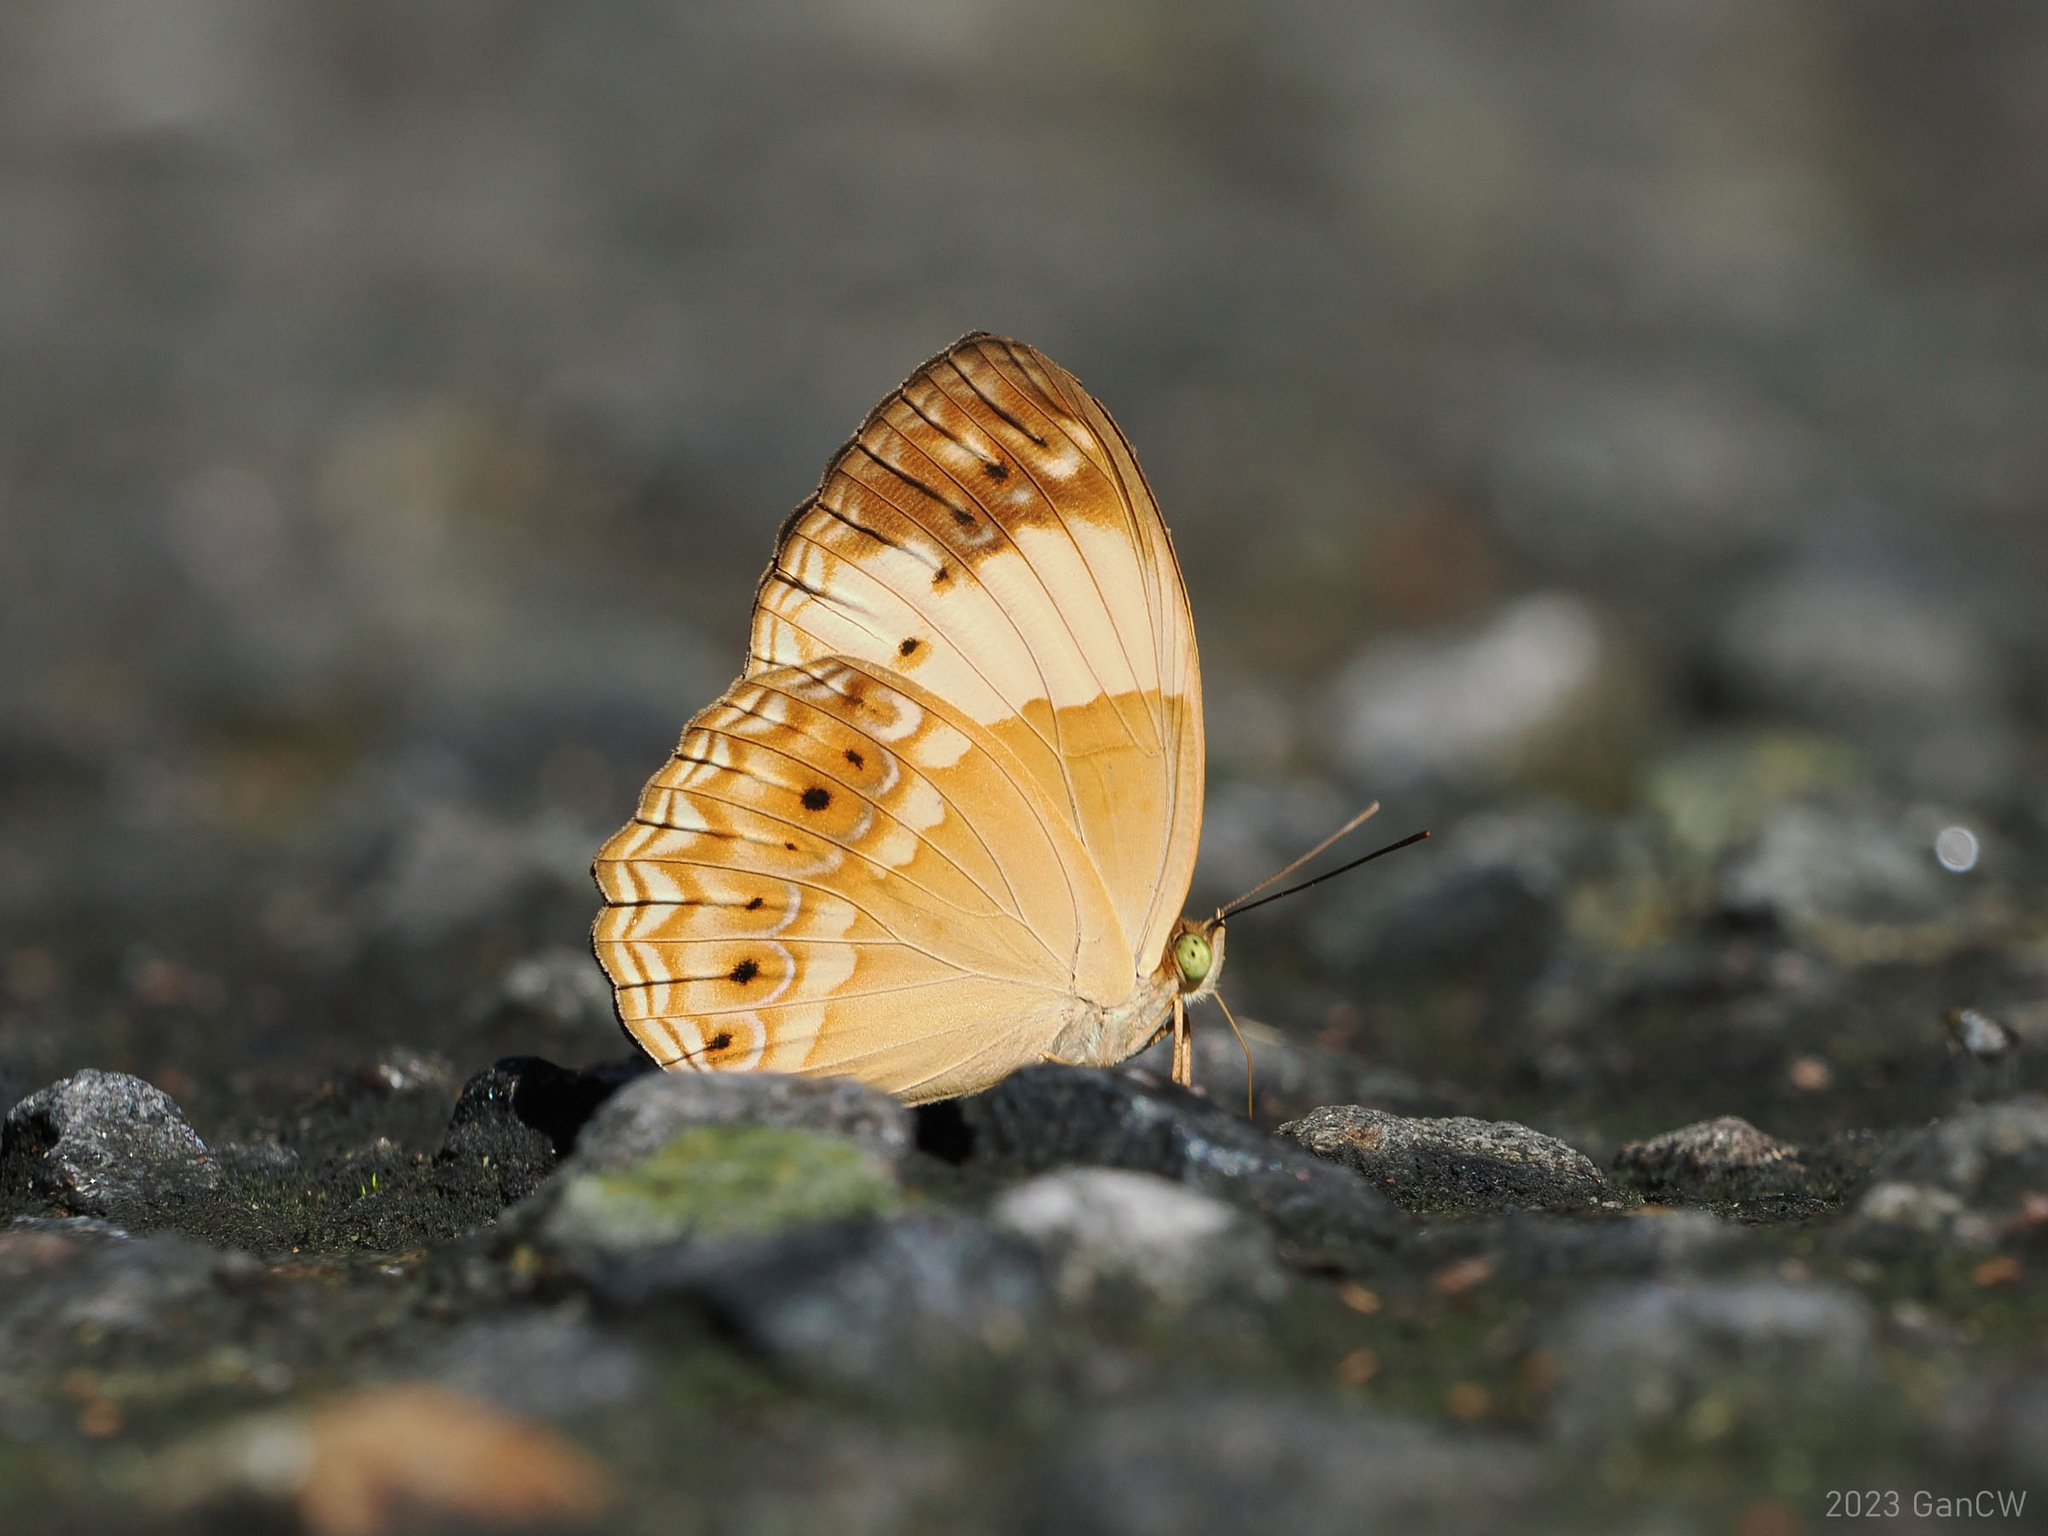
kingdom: Animalia
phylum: Arthropoda
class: Insecta
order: Lepidoptera
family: Nymphalidae
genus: Cupha
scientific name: Cupha arias
